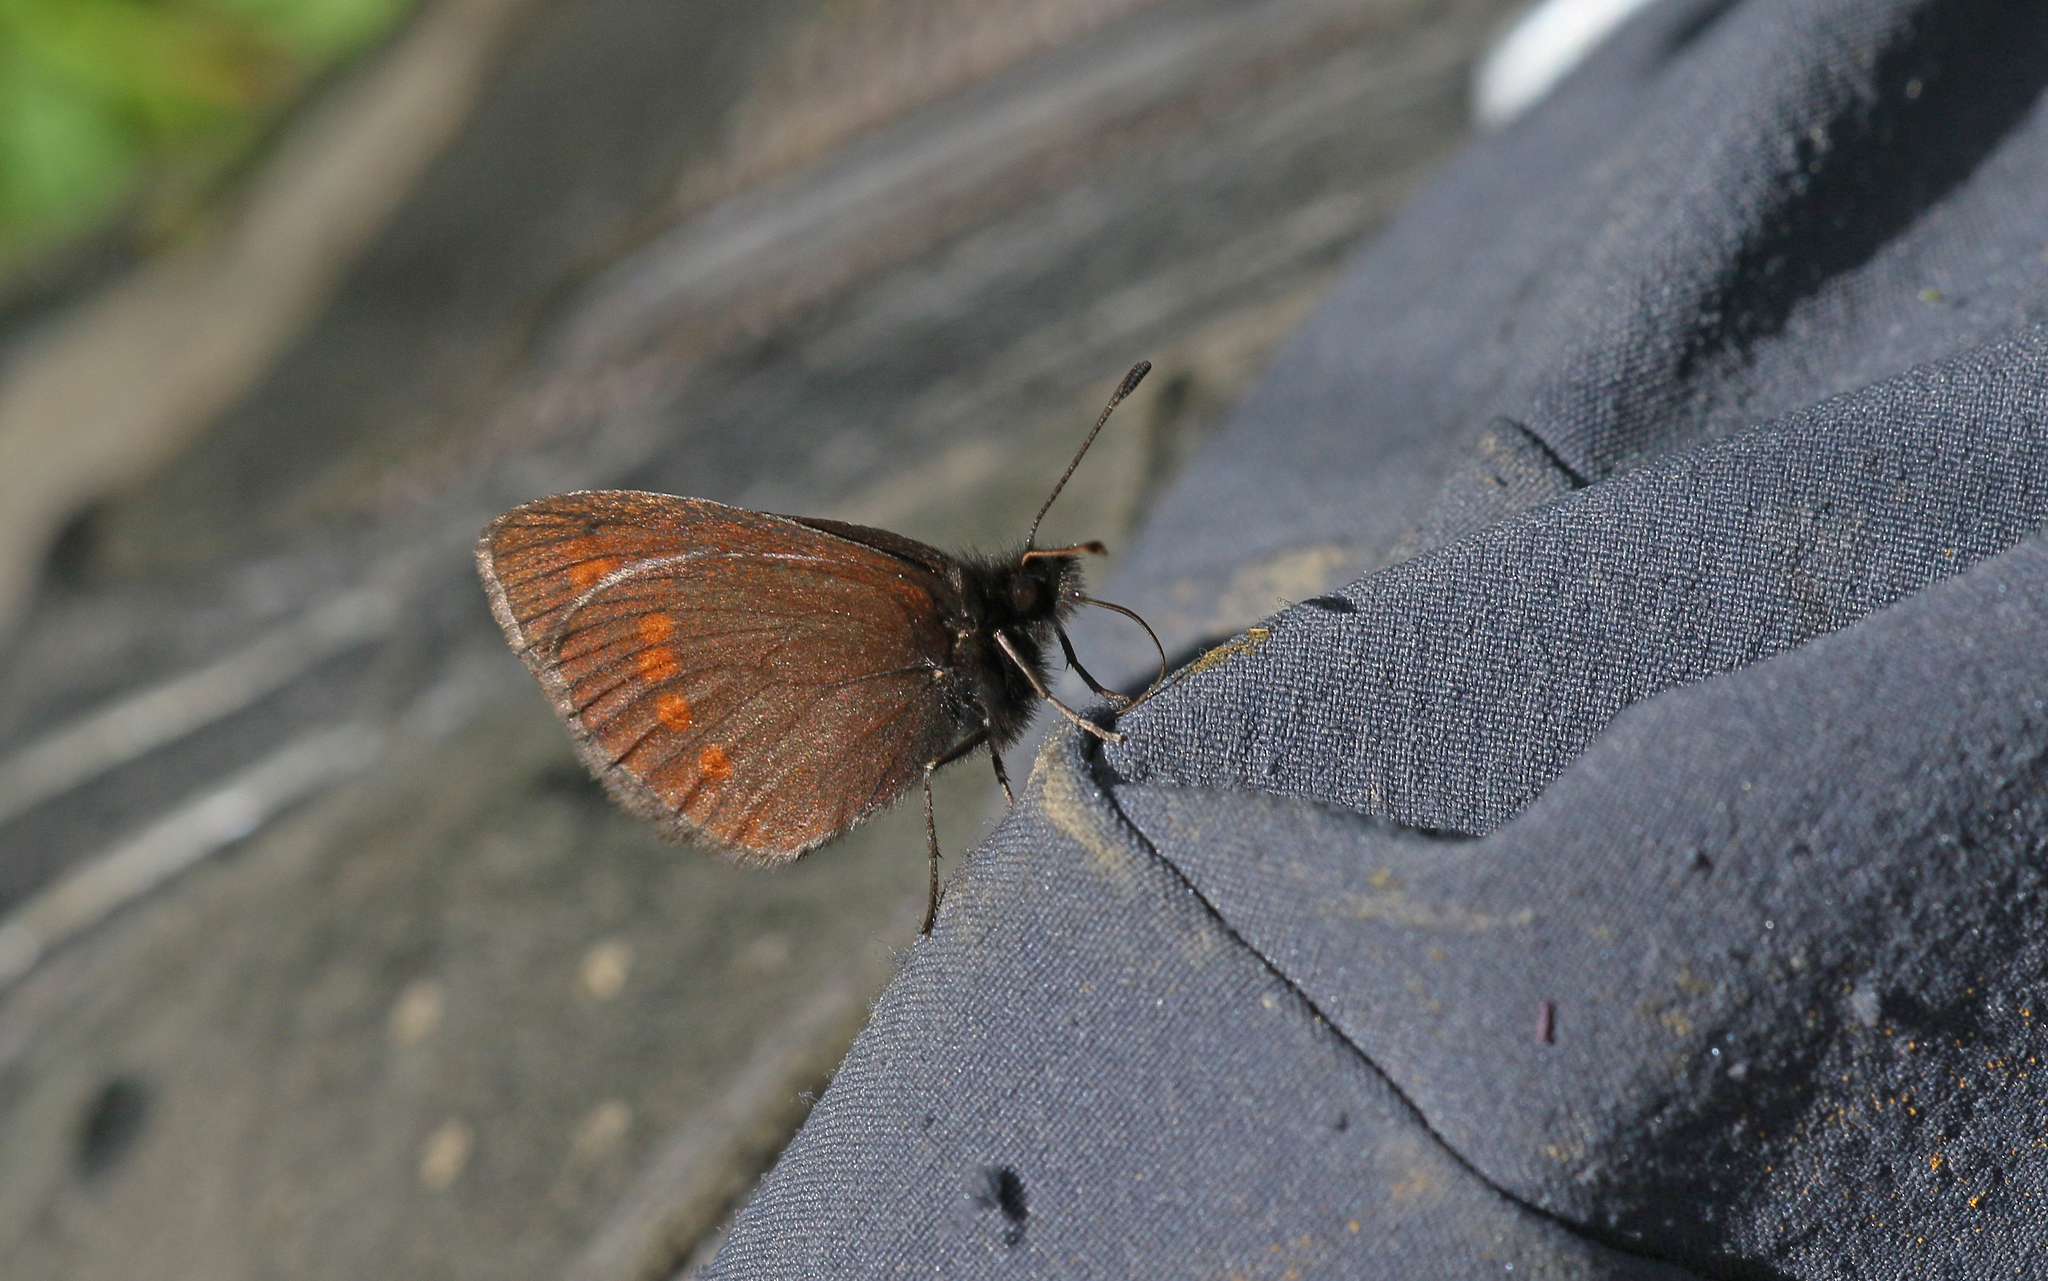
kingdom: Animalia
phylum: Arthropoda
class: Insecta
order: Lepidoptera
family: Nymphalidae
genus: Erebia
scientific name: Erebia
